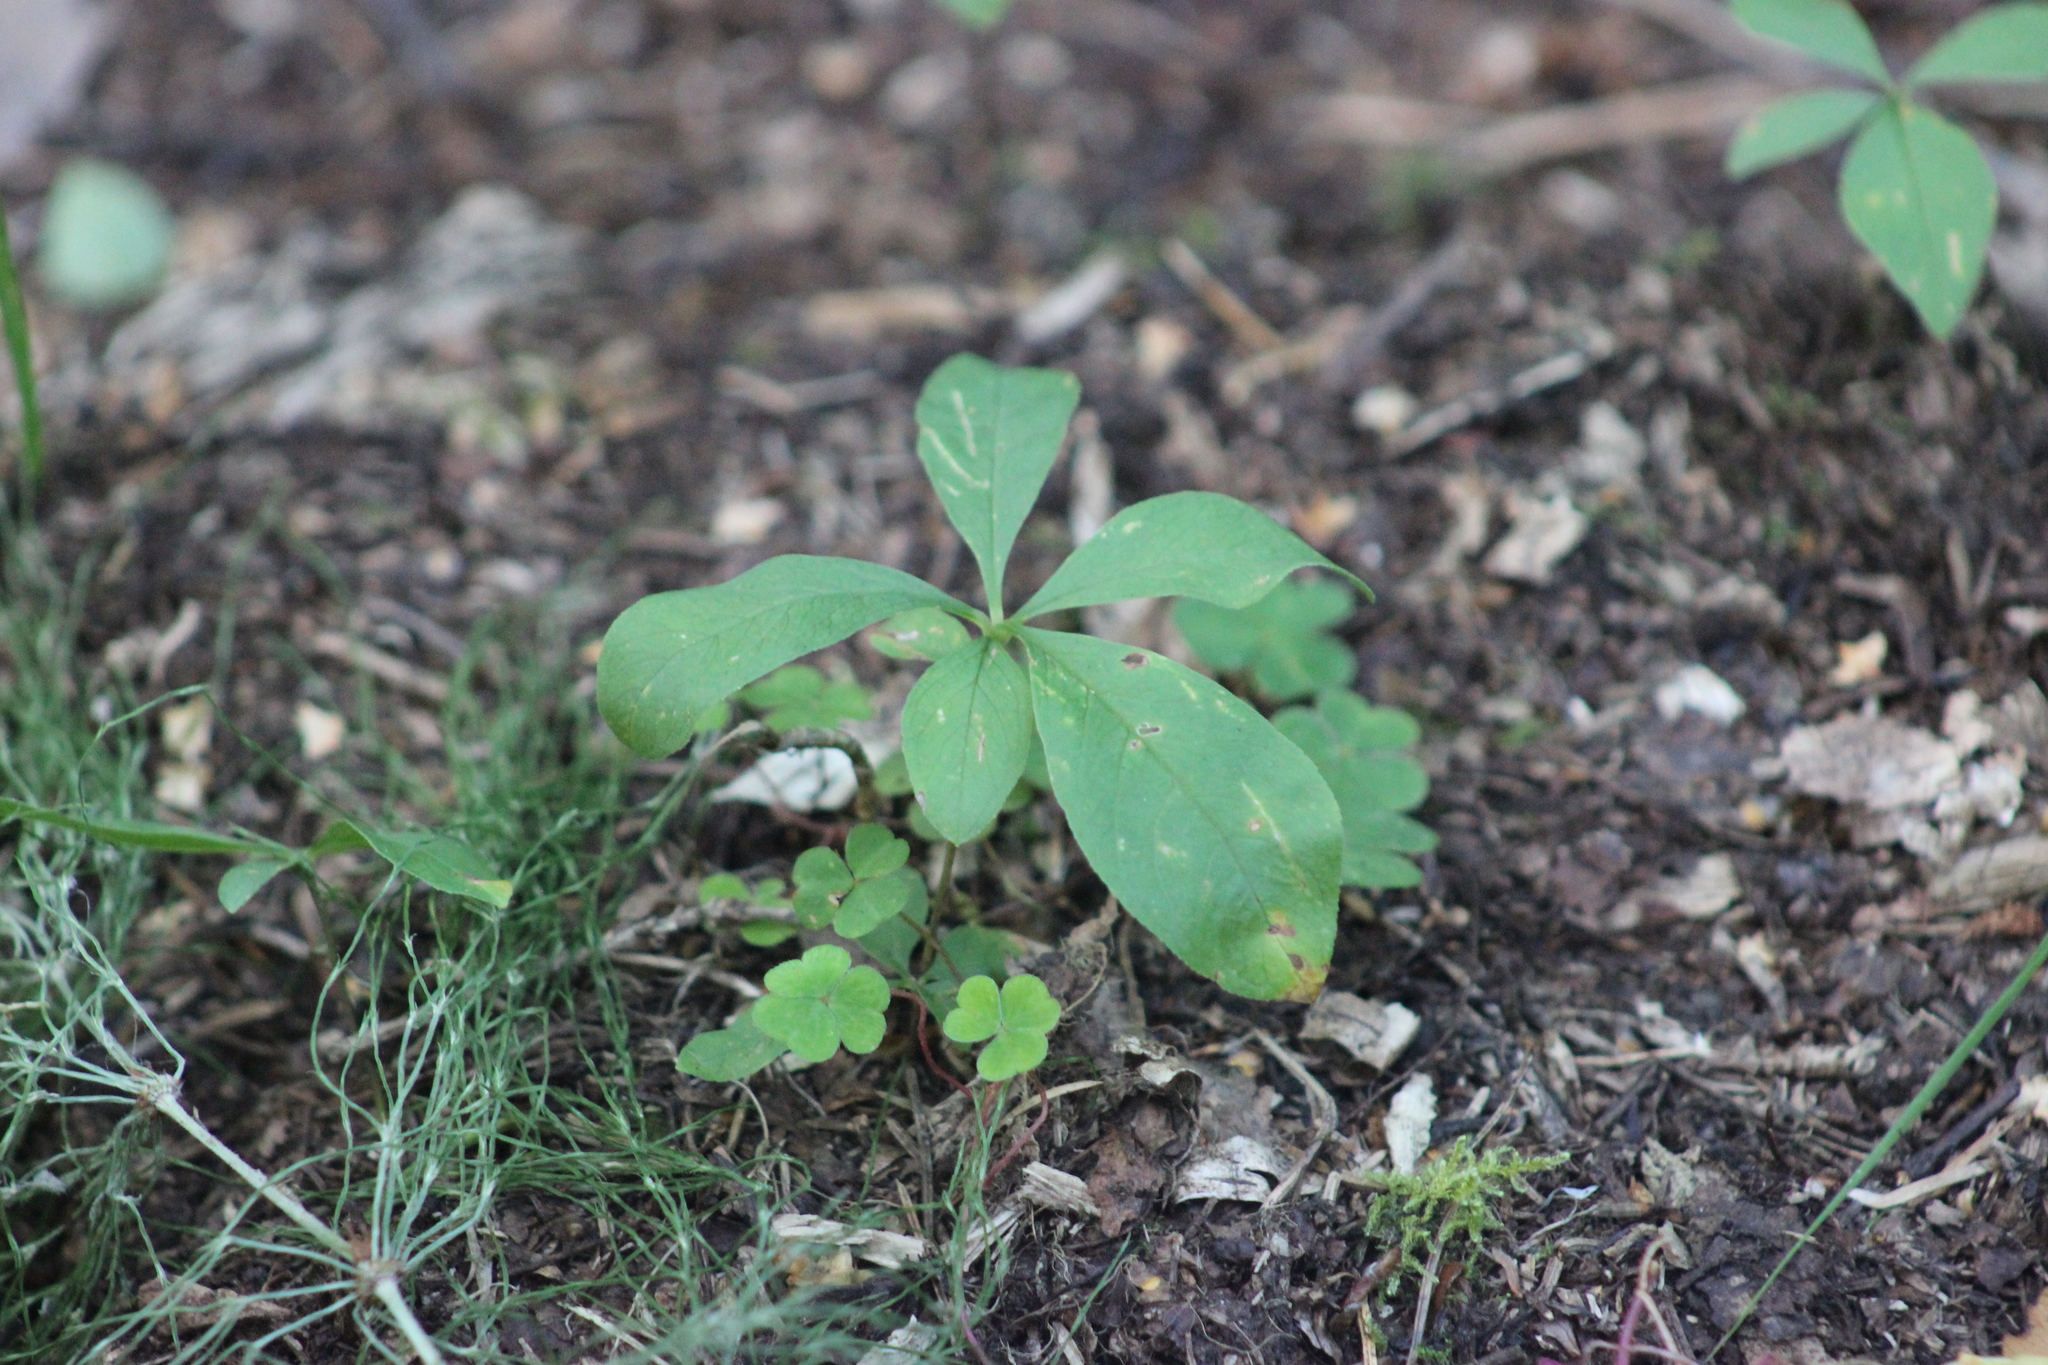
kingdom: Plantae
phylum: Tracheophyta
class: Magnoliopsida
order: Ericales
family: Primulaceae
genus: Lysimachia
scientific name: Lysimachia europaea
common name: Arctic starflower
